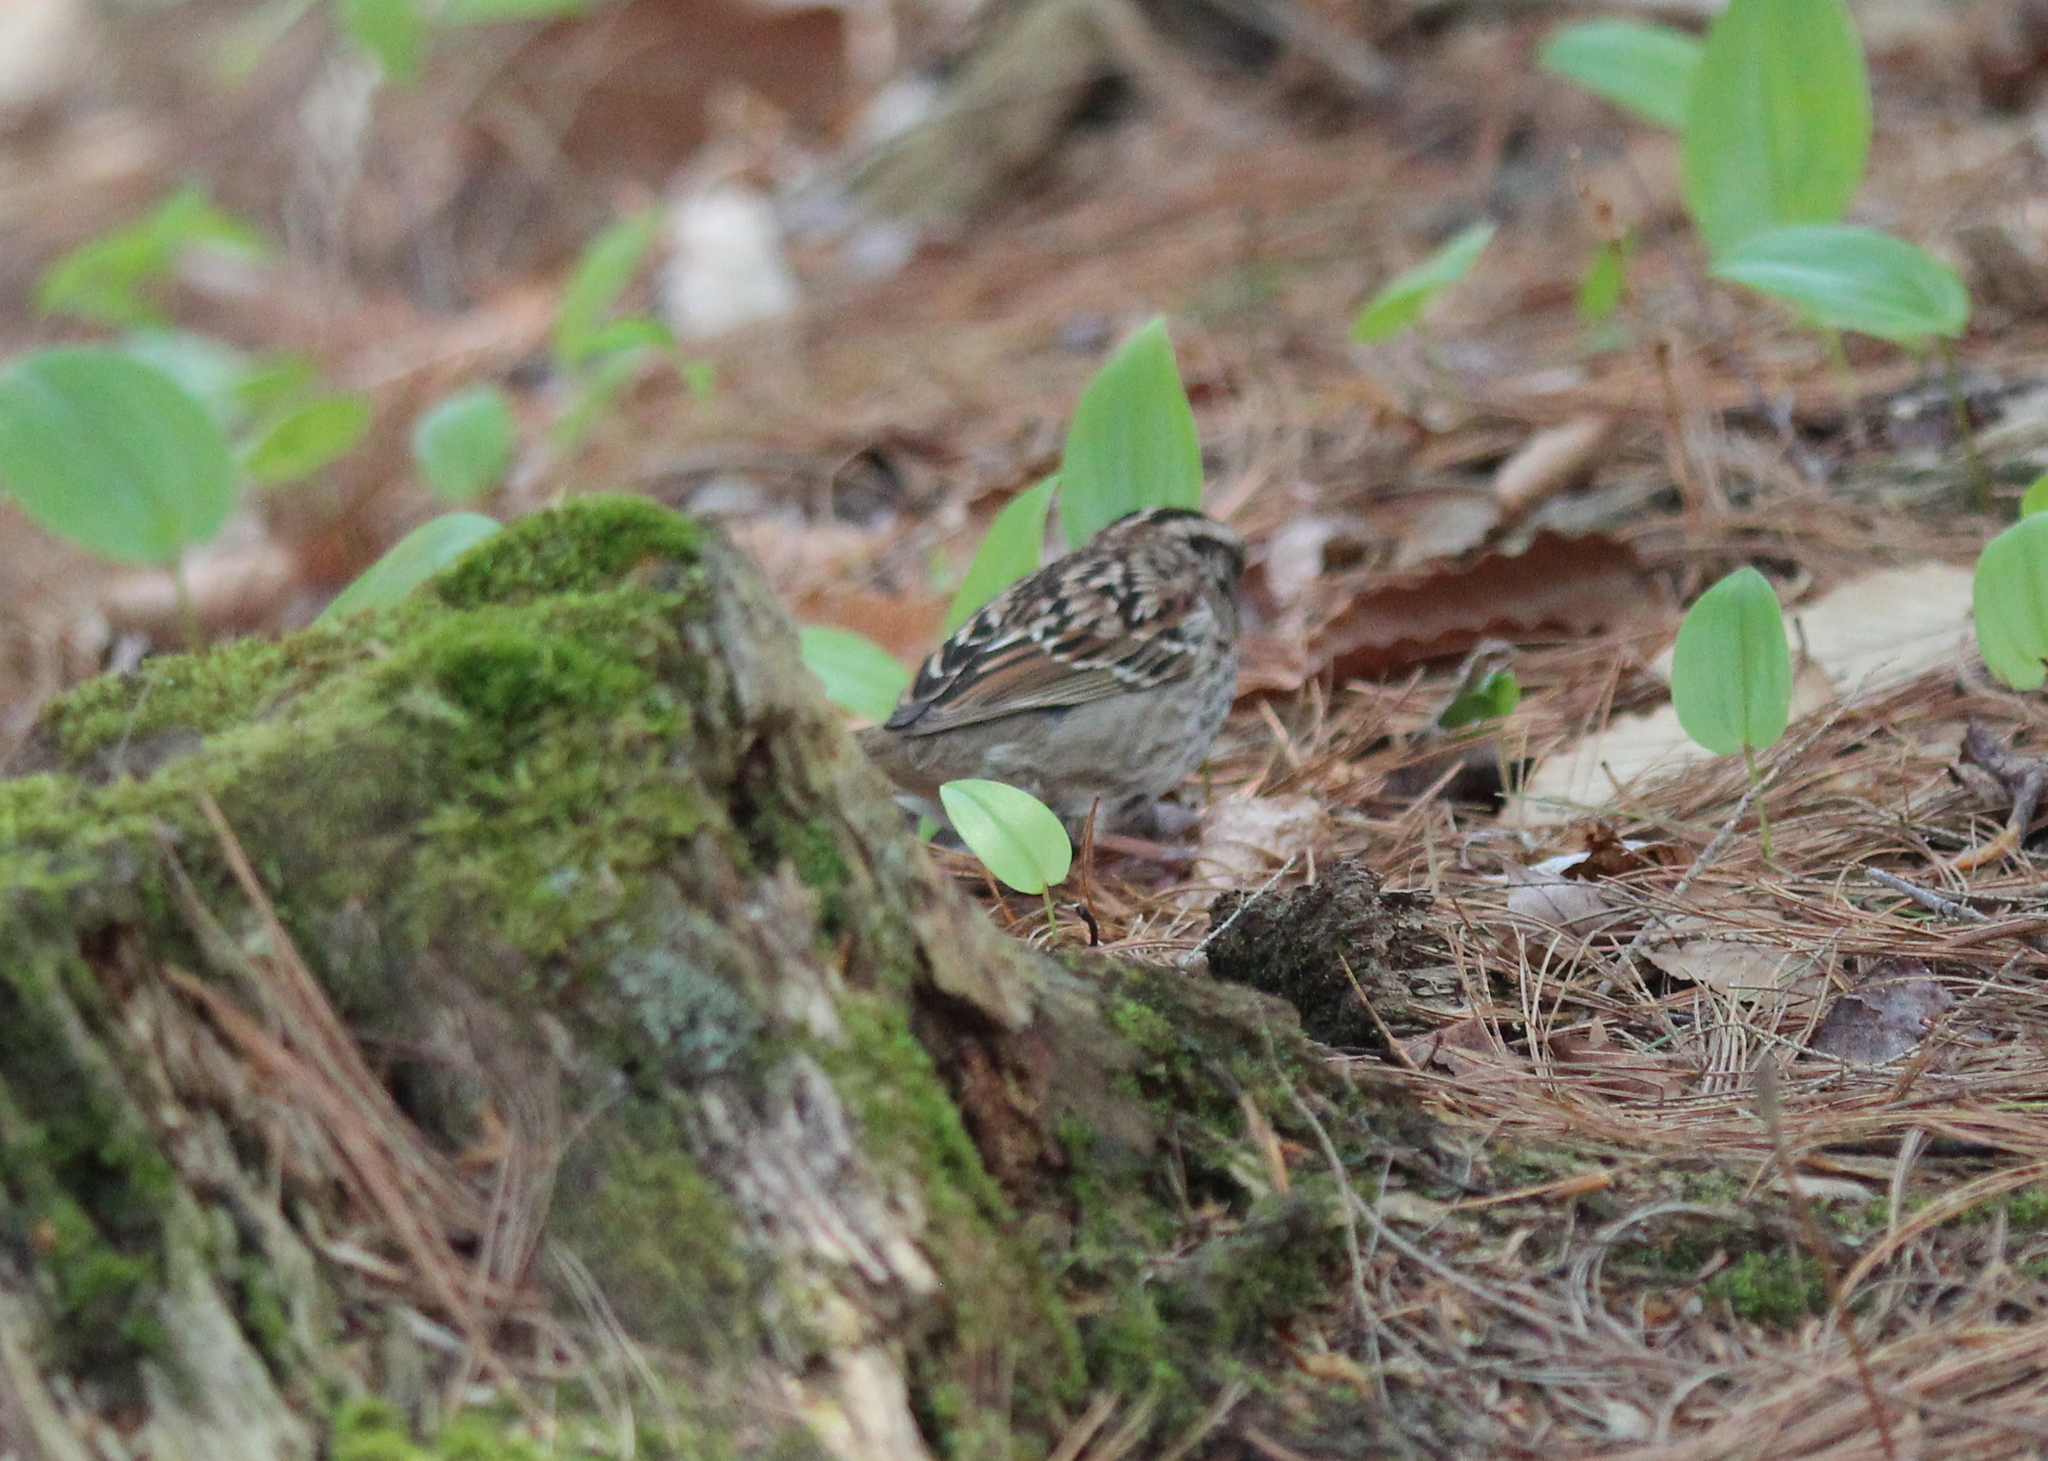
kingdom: Animalia
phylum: Chordata
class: Aves
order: Passeriformes
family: Passerellidae
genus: Zonotrichia
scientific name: Zonotrichia albicollis
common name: White-throated sparrow
